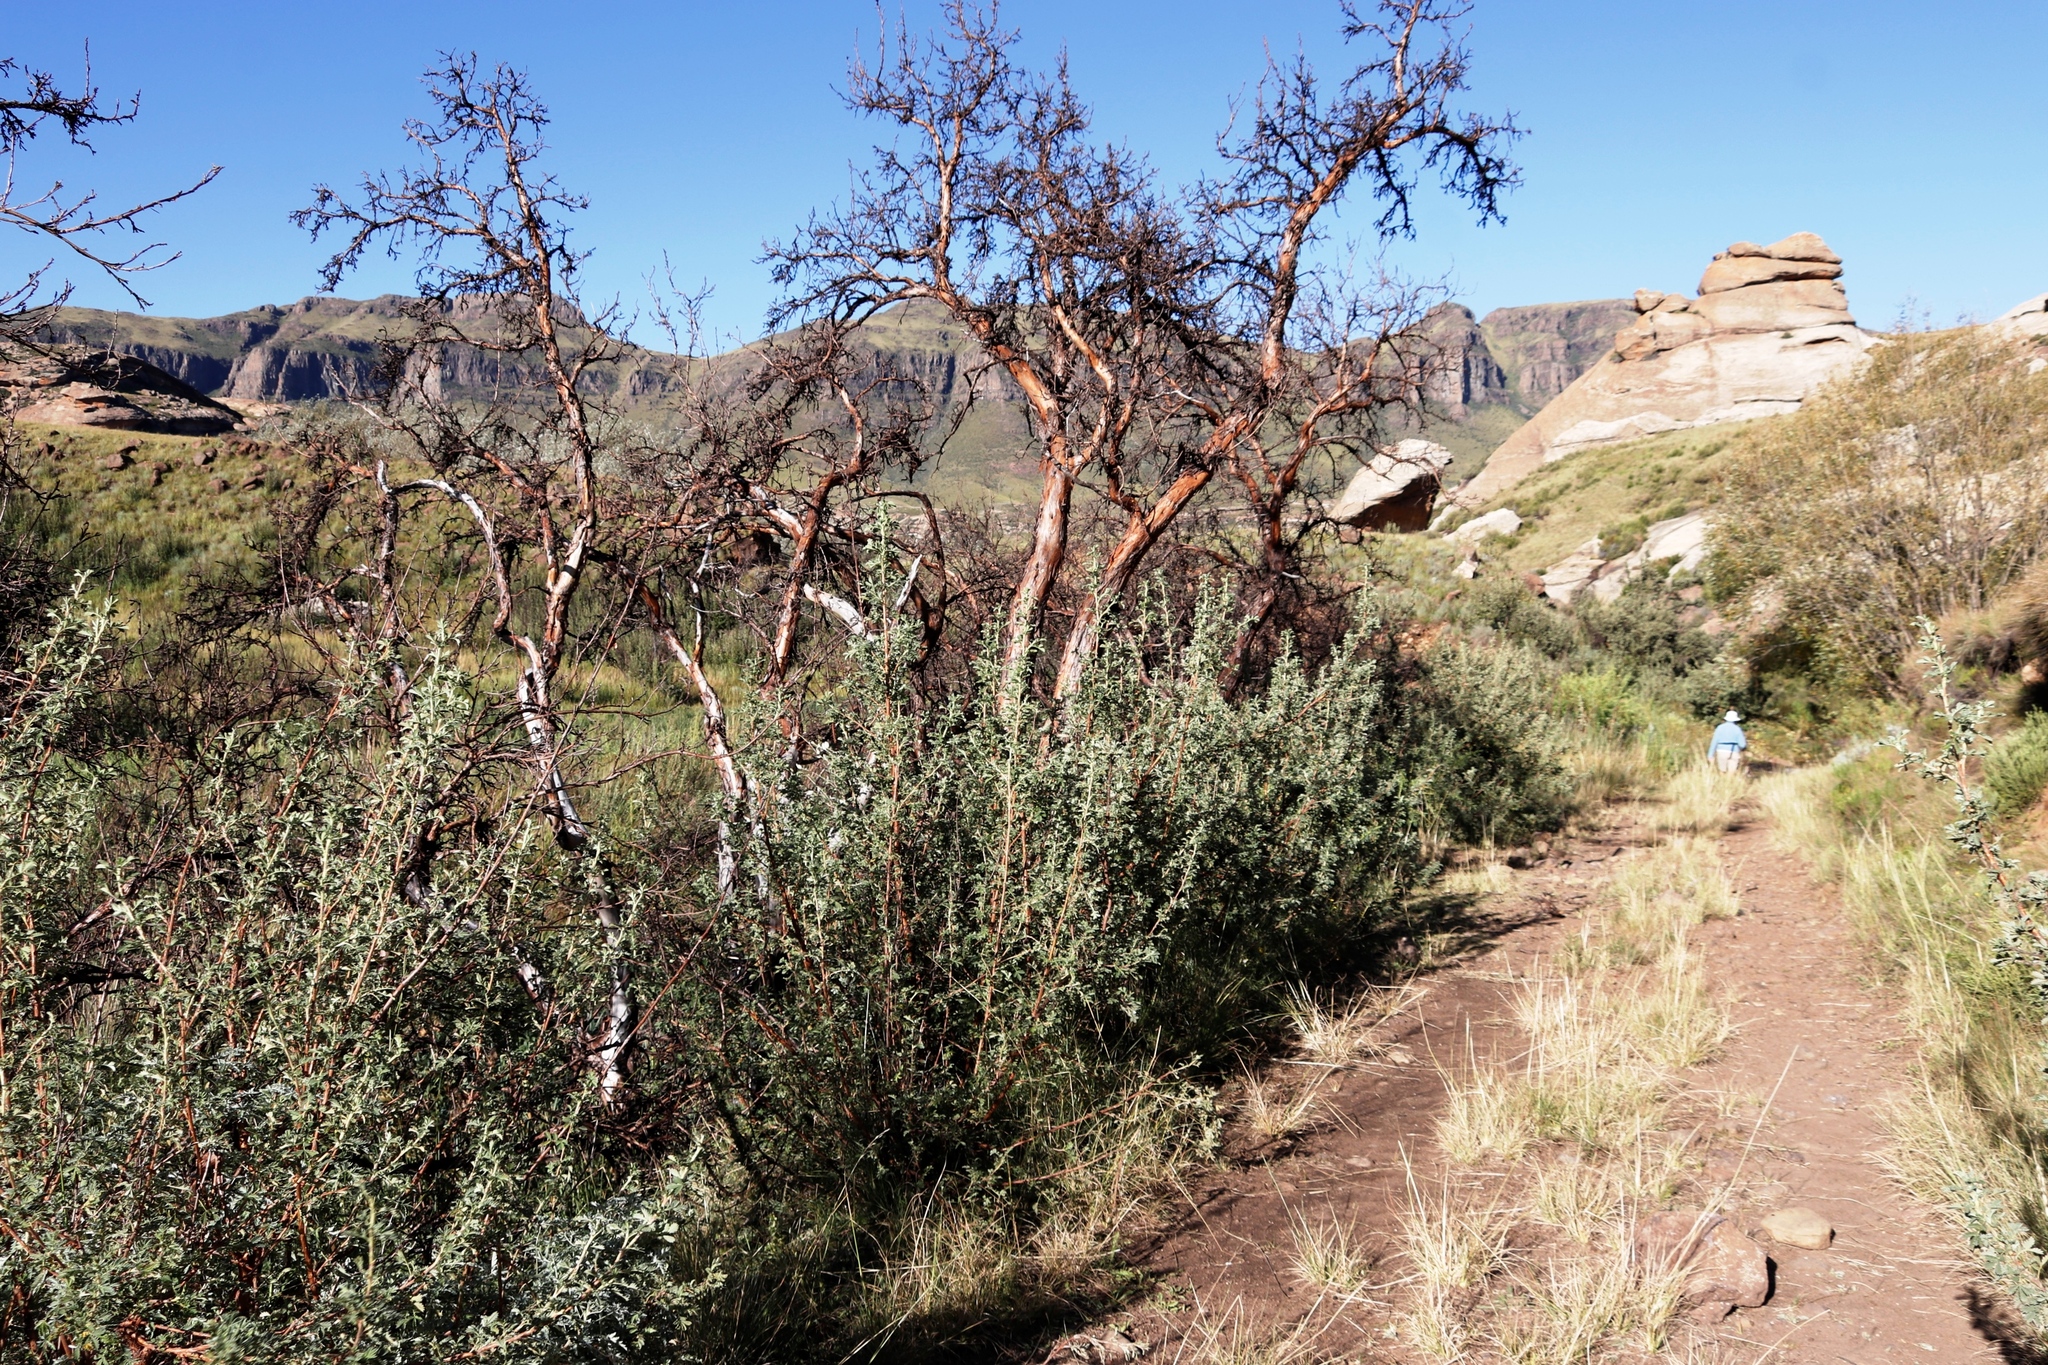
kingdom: Plantae
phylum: Tracheophyta
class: Magnoliopsida
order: Rosales
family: Rosaceae
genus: Leucosidea
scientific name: Leucosidea sericea
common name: Oldwood
